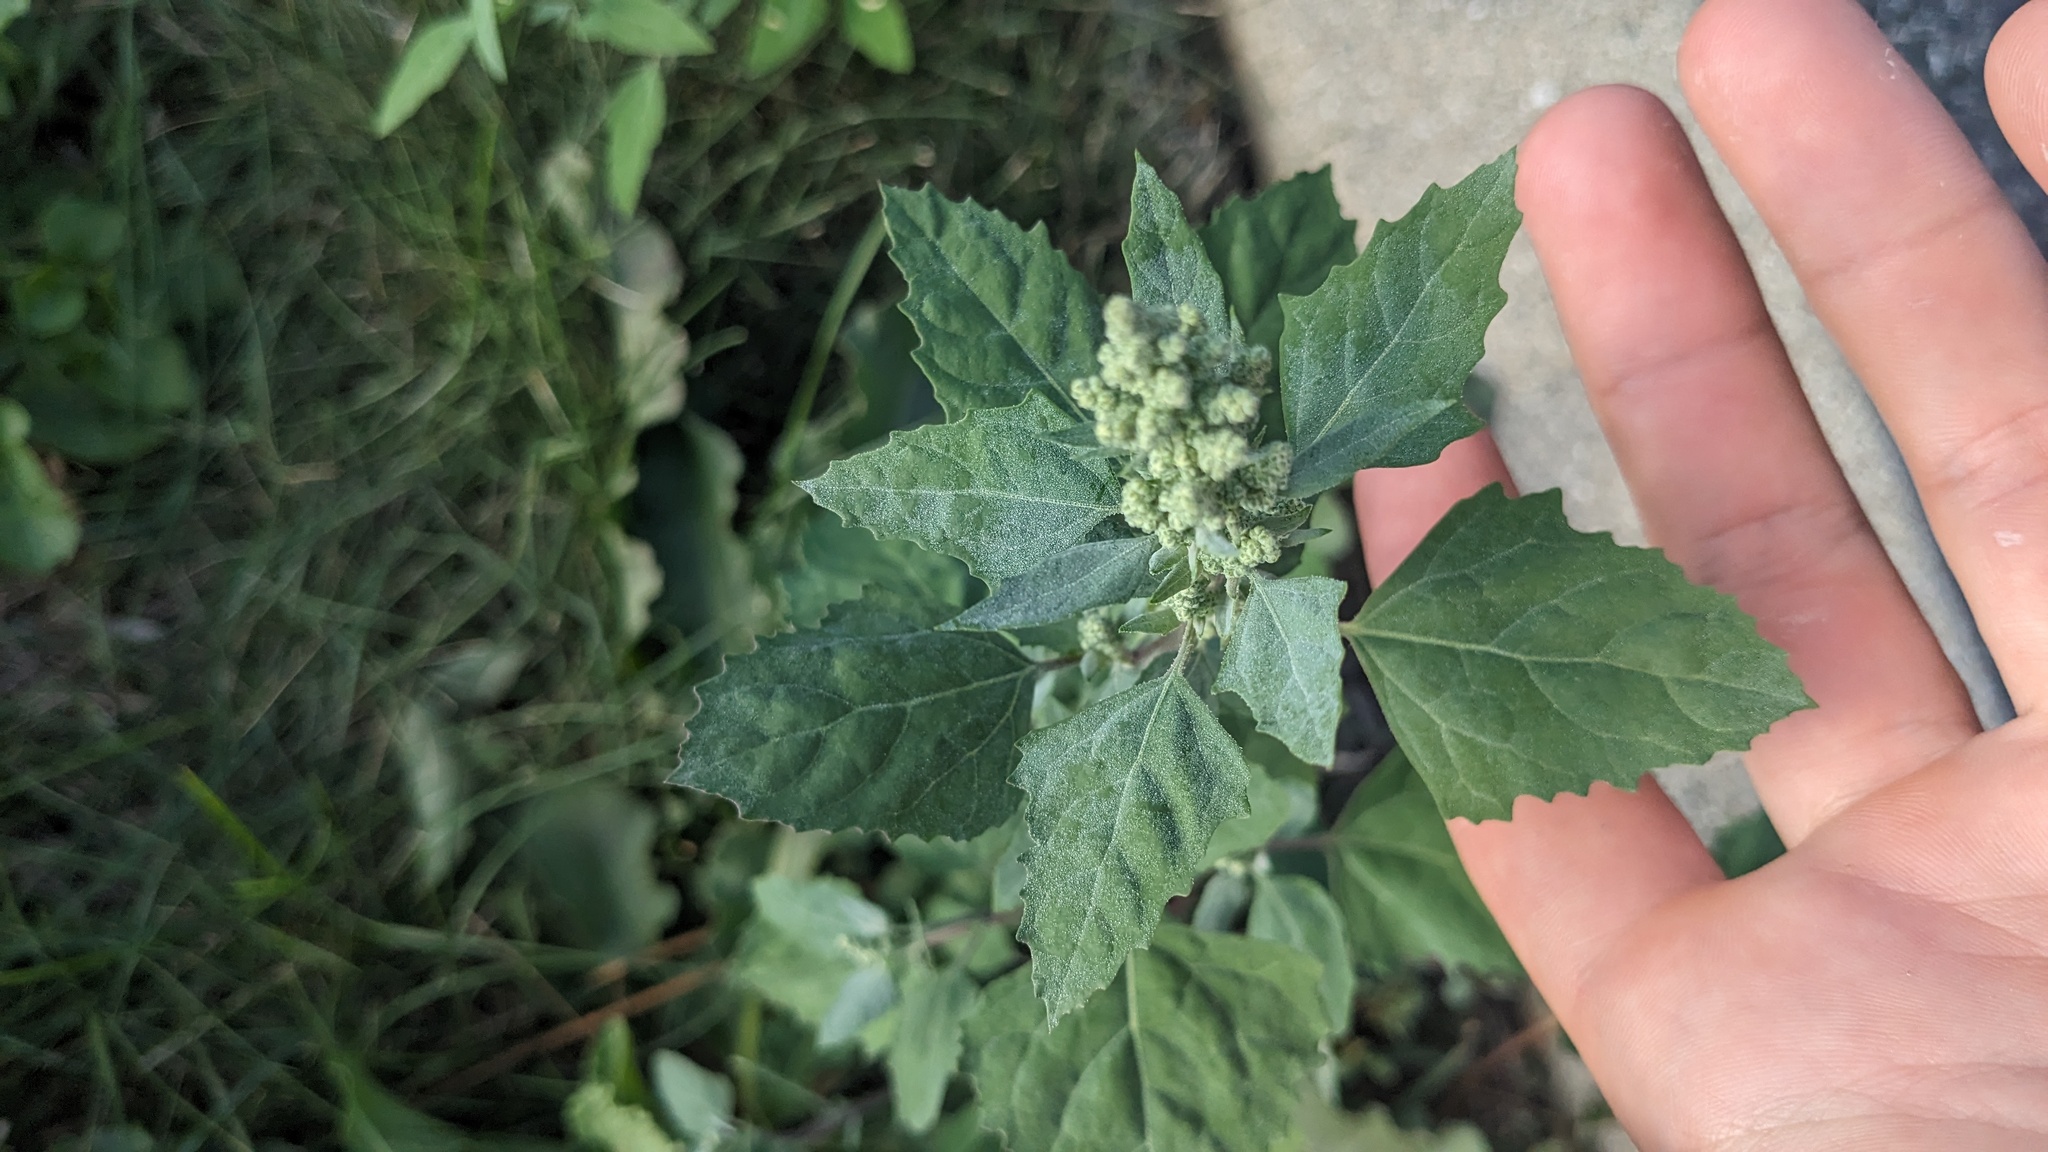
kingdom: Plantae
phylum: Tracheophyta
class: Magnoliopsida
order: Caryophyllales
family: Amaranthaceae
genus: Chenopodium
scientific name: Chenopodium album
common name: Fat-hen
